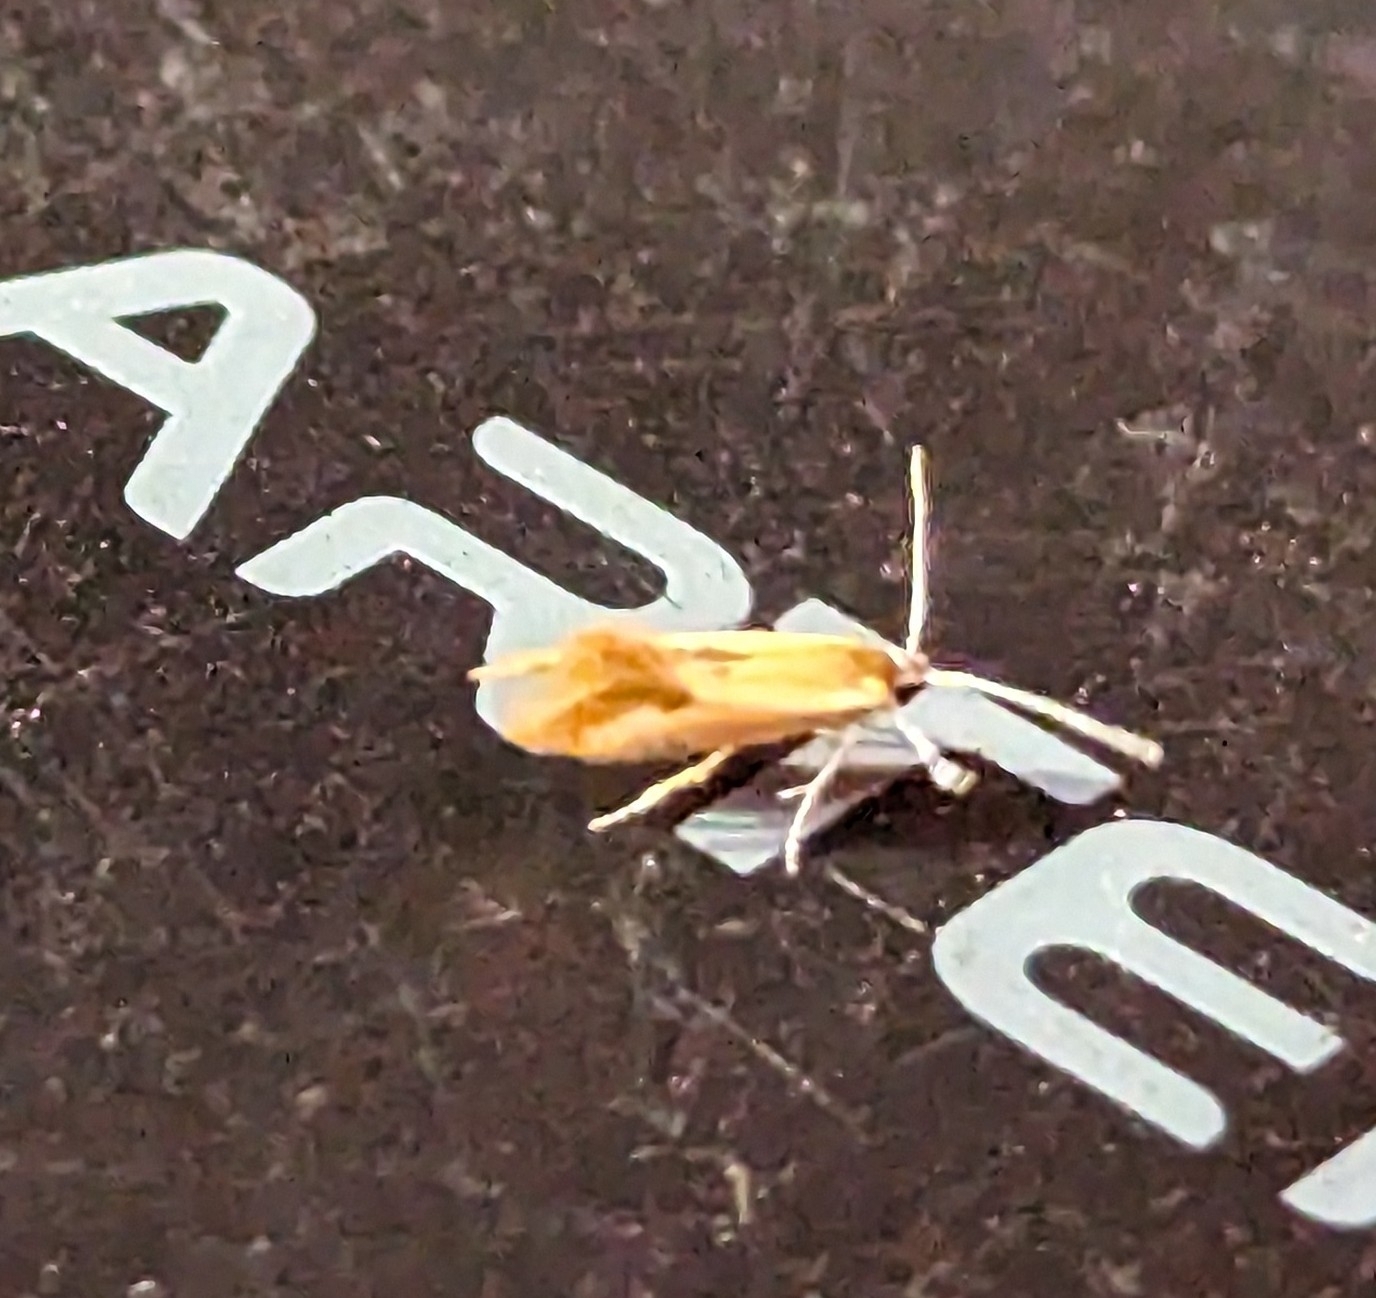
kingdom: Animalia
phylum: Arthropoda
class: Insecta
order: Lepidoptera
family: Oecophoridae
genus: Batia
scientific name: Batia lunaris
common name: Moth
